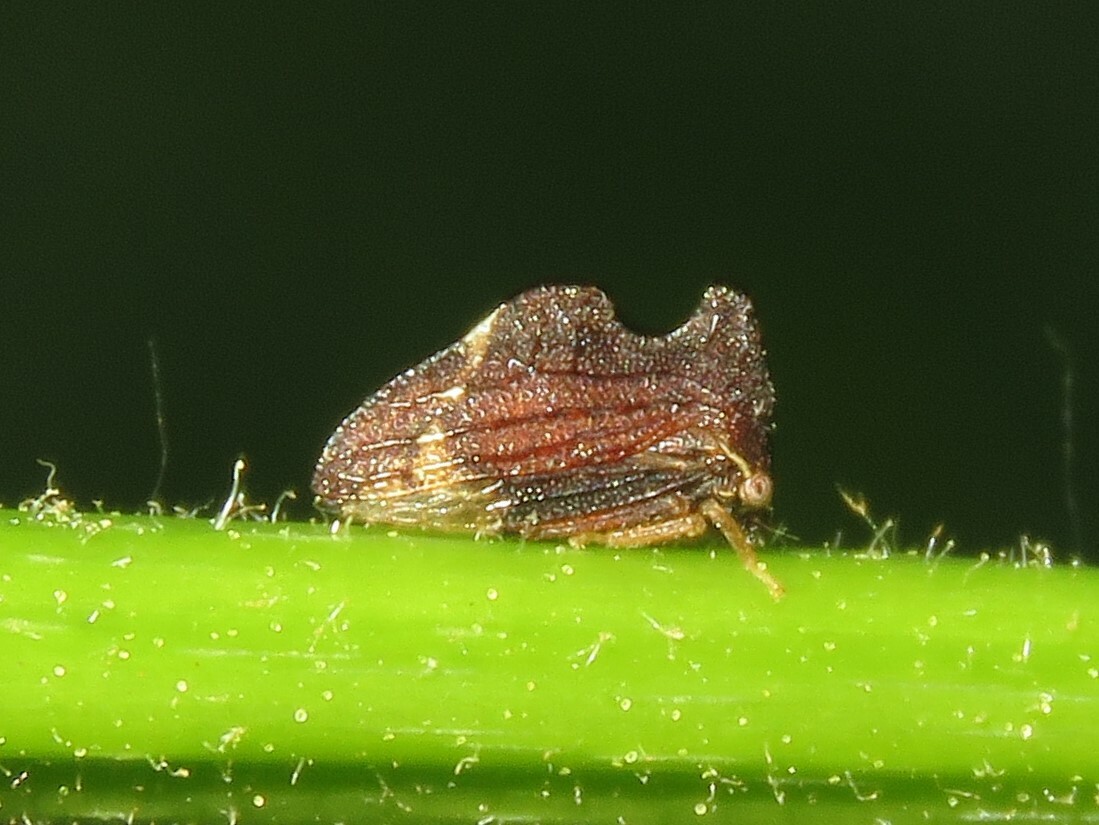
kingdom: Animalia
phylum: Arthropoda
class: Insecta
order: Hemiptera
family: Membracidae
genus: Entylia
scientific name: Entylia carinata
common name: Keeled treehopper
